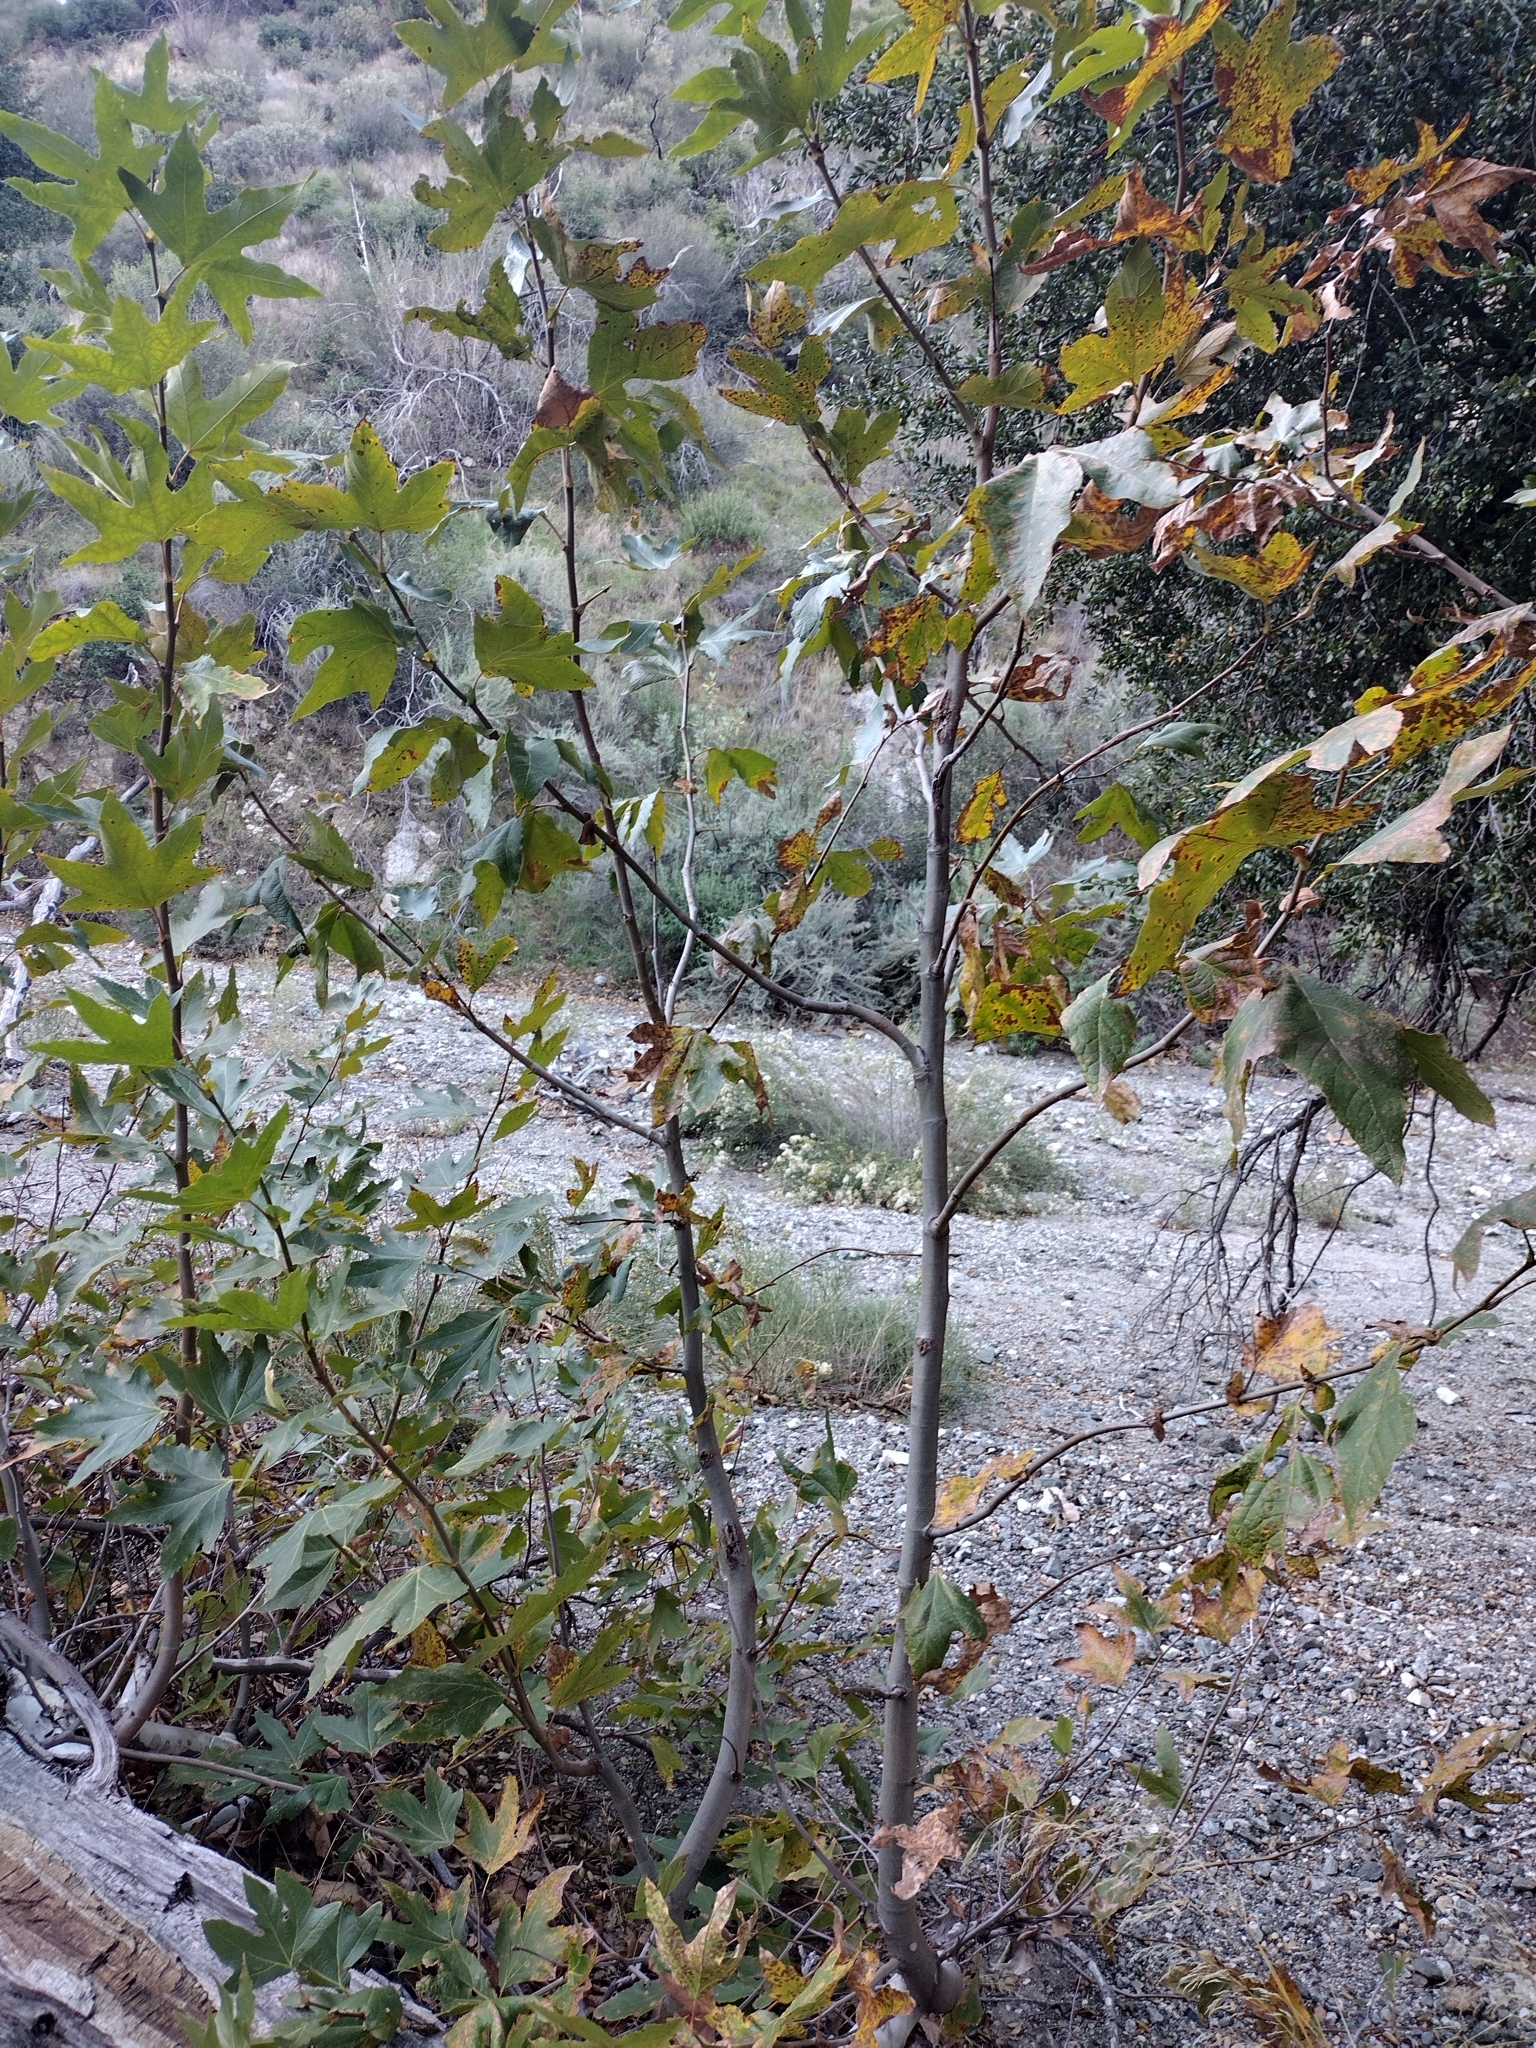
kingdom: Plantae
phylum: Tracheophyta
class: Magnoliopsida
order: Proteales
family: Platanaceae
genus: Platanus
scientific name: Platanus racemosa
